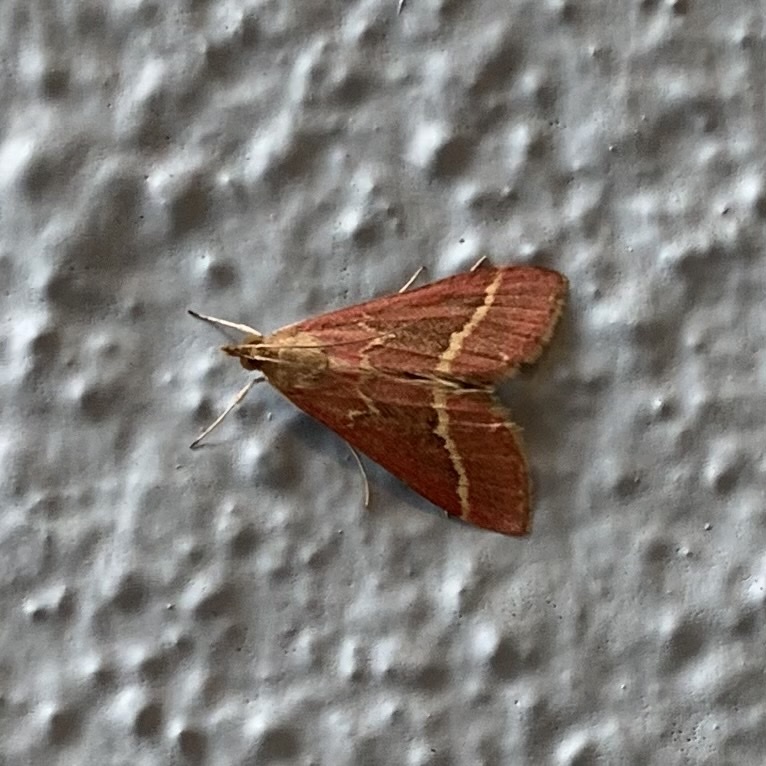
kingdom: Animalia
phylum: Arthropoda
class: Insecta
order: Lepidoptera
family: Crambidae
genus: Pyrausta
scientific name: Pyrausta volupialis
